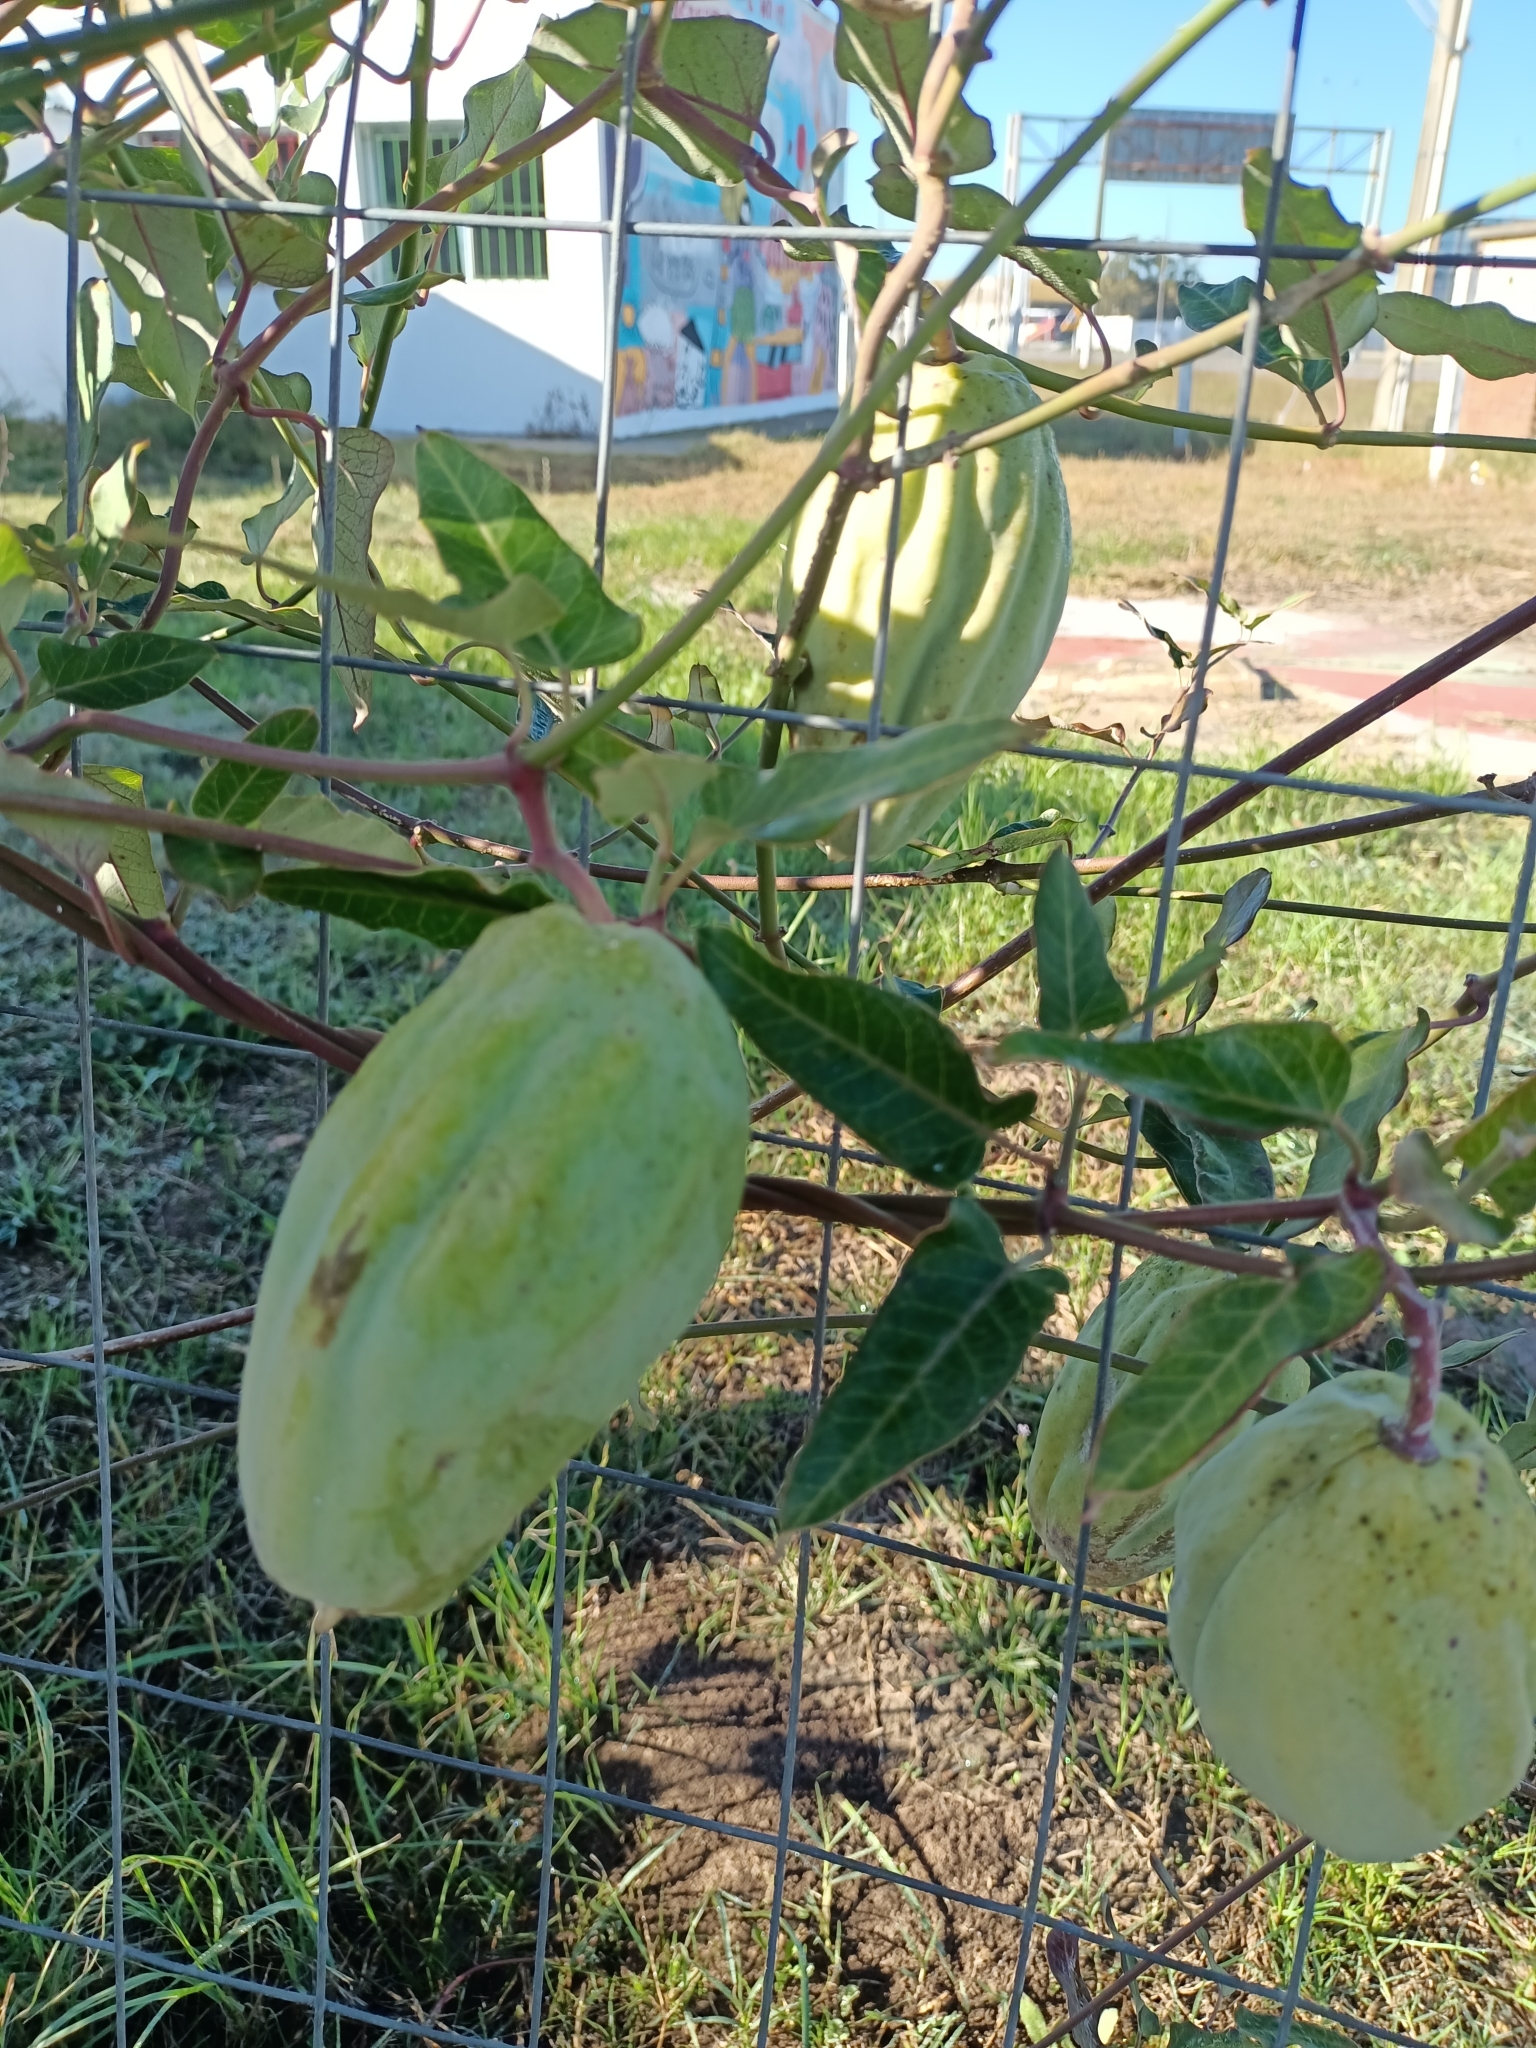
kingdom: Plantae
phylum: Tracheophyta
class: Magnoliopsida
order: Gentianales
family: Apocynaceae
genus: Araujia
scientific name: Araujia sericifera
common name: White bladderflower
